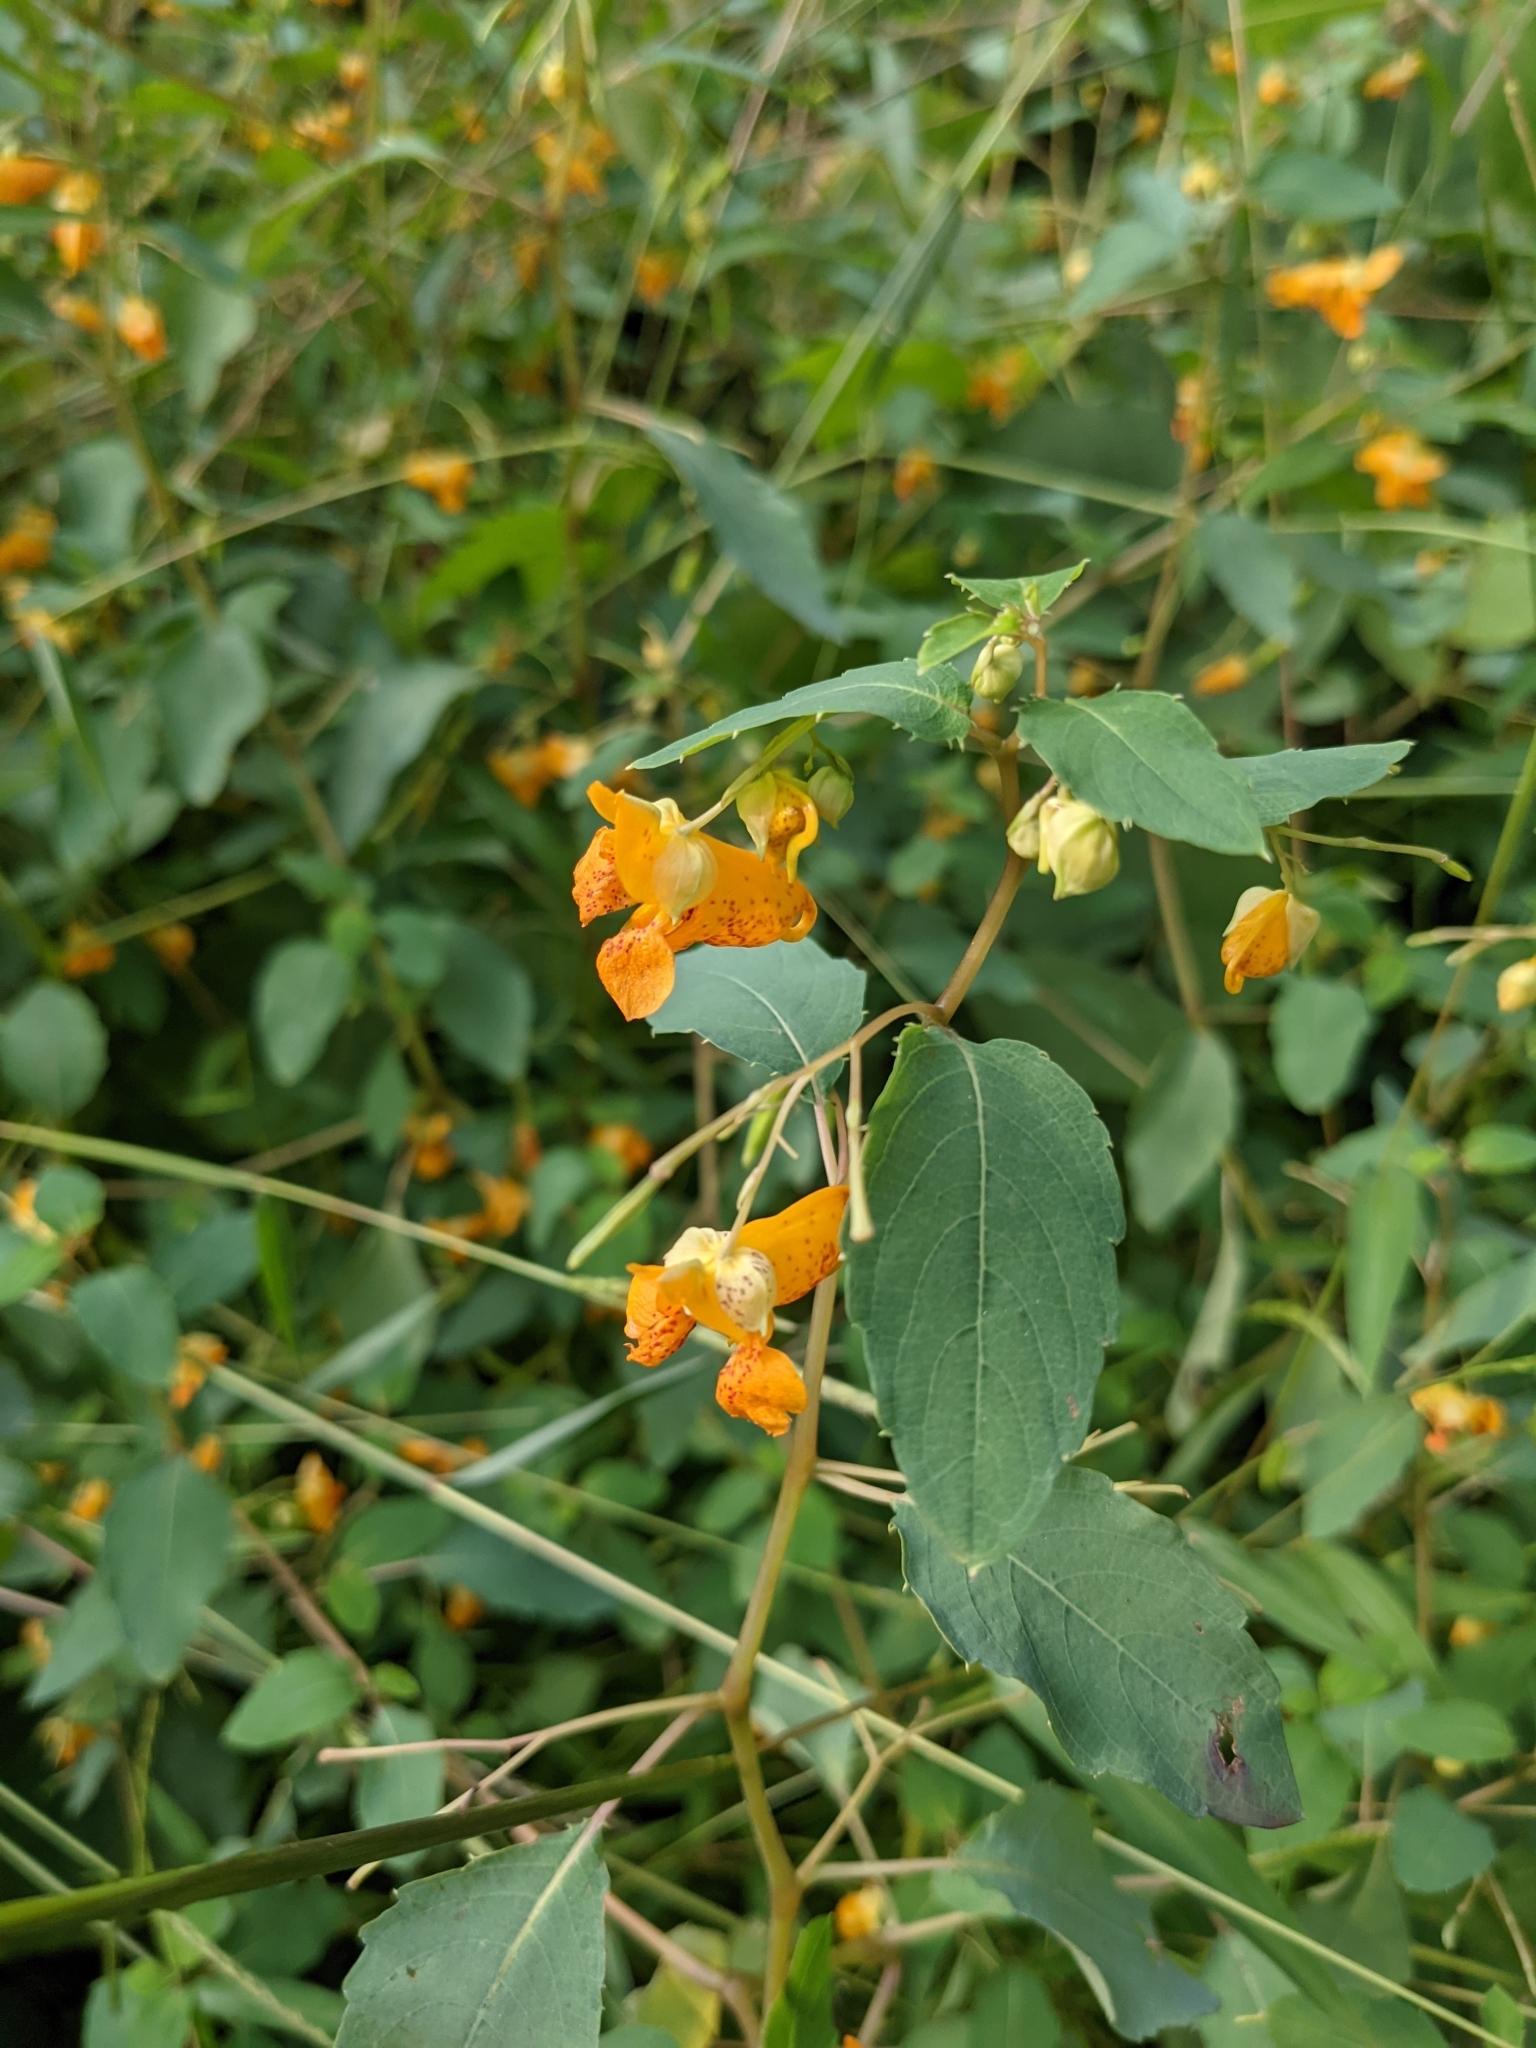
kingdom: Plantae
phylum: Tracheophyta
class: Magnoliopsida
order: Ericales
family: Balsaminaceae
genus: Impatiens
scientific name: Impatiens capensis
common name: Orange balsam
